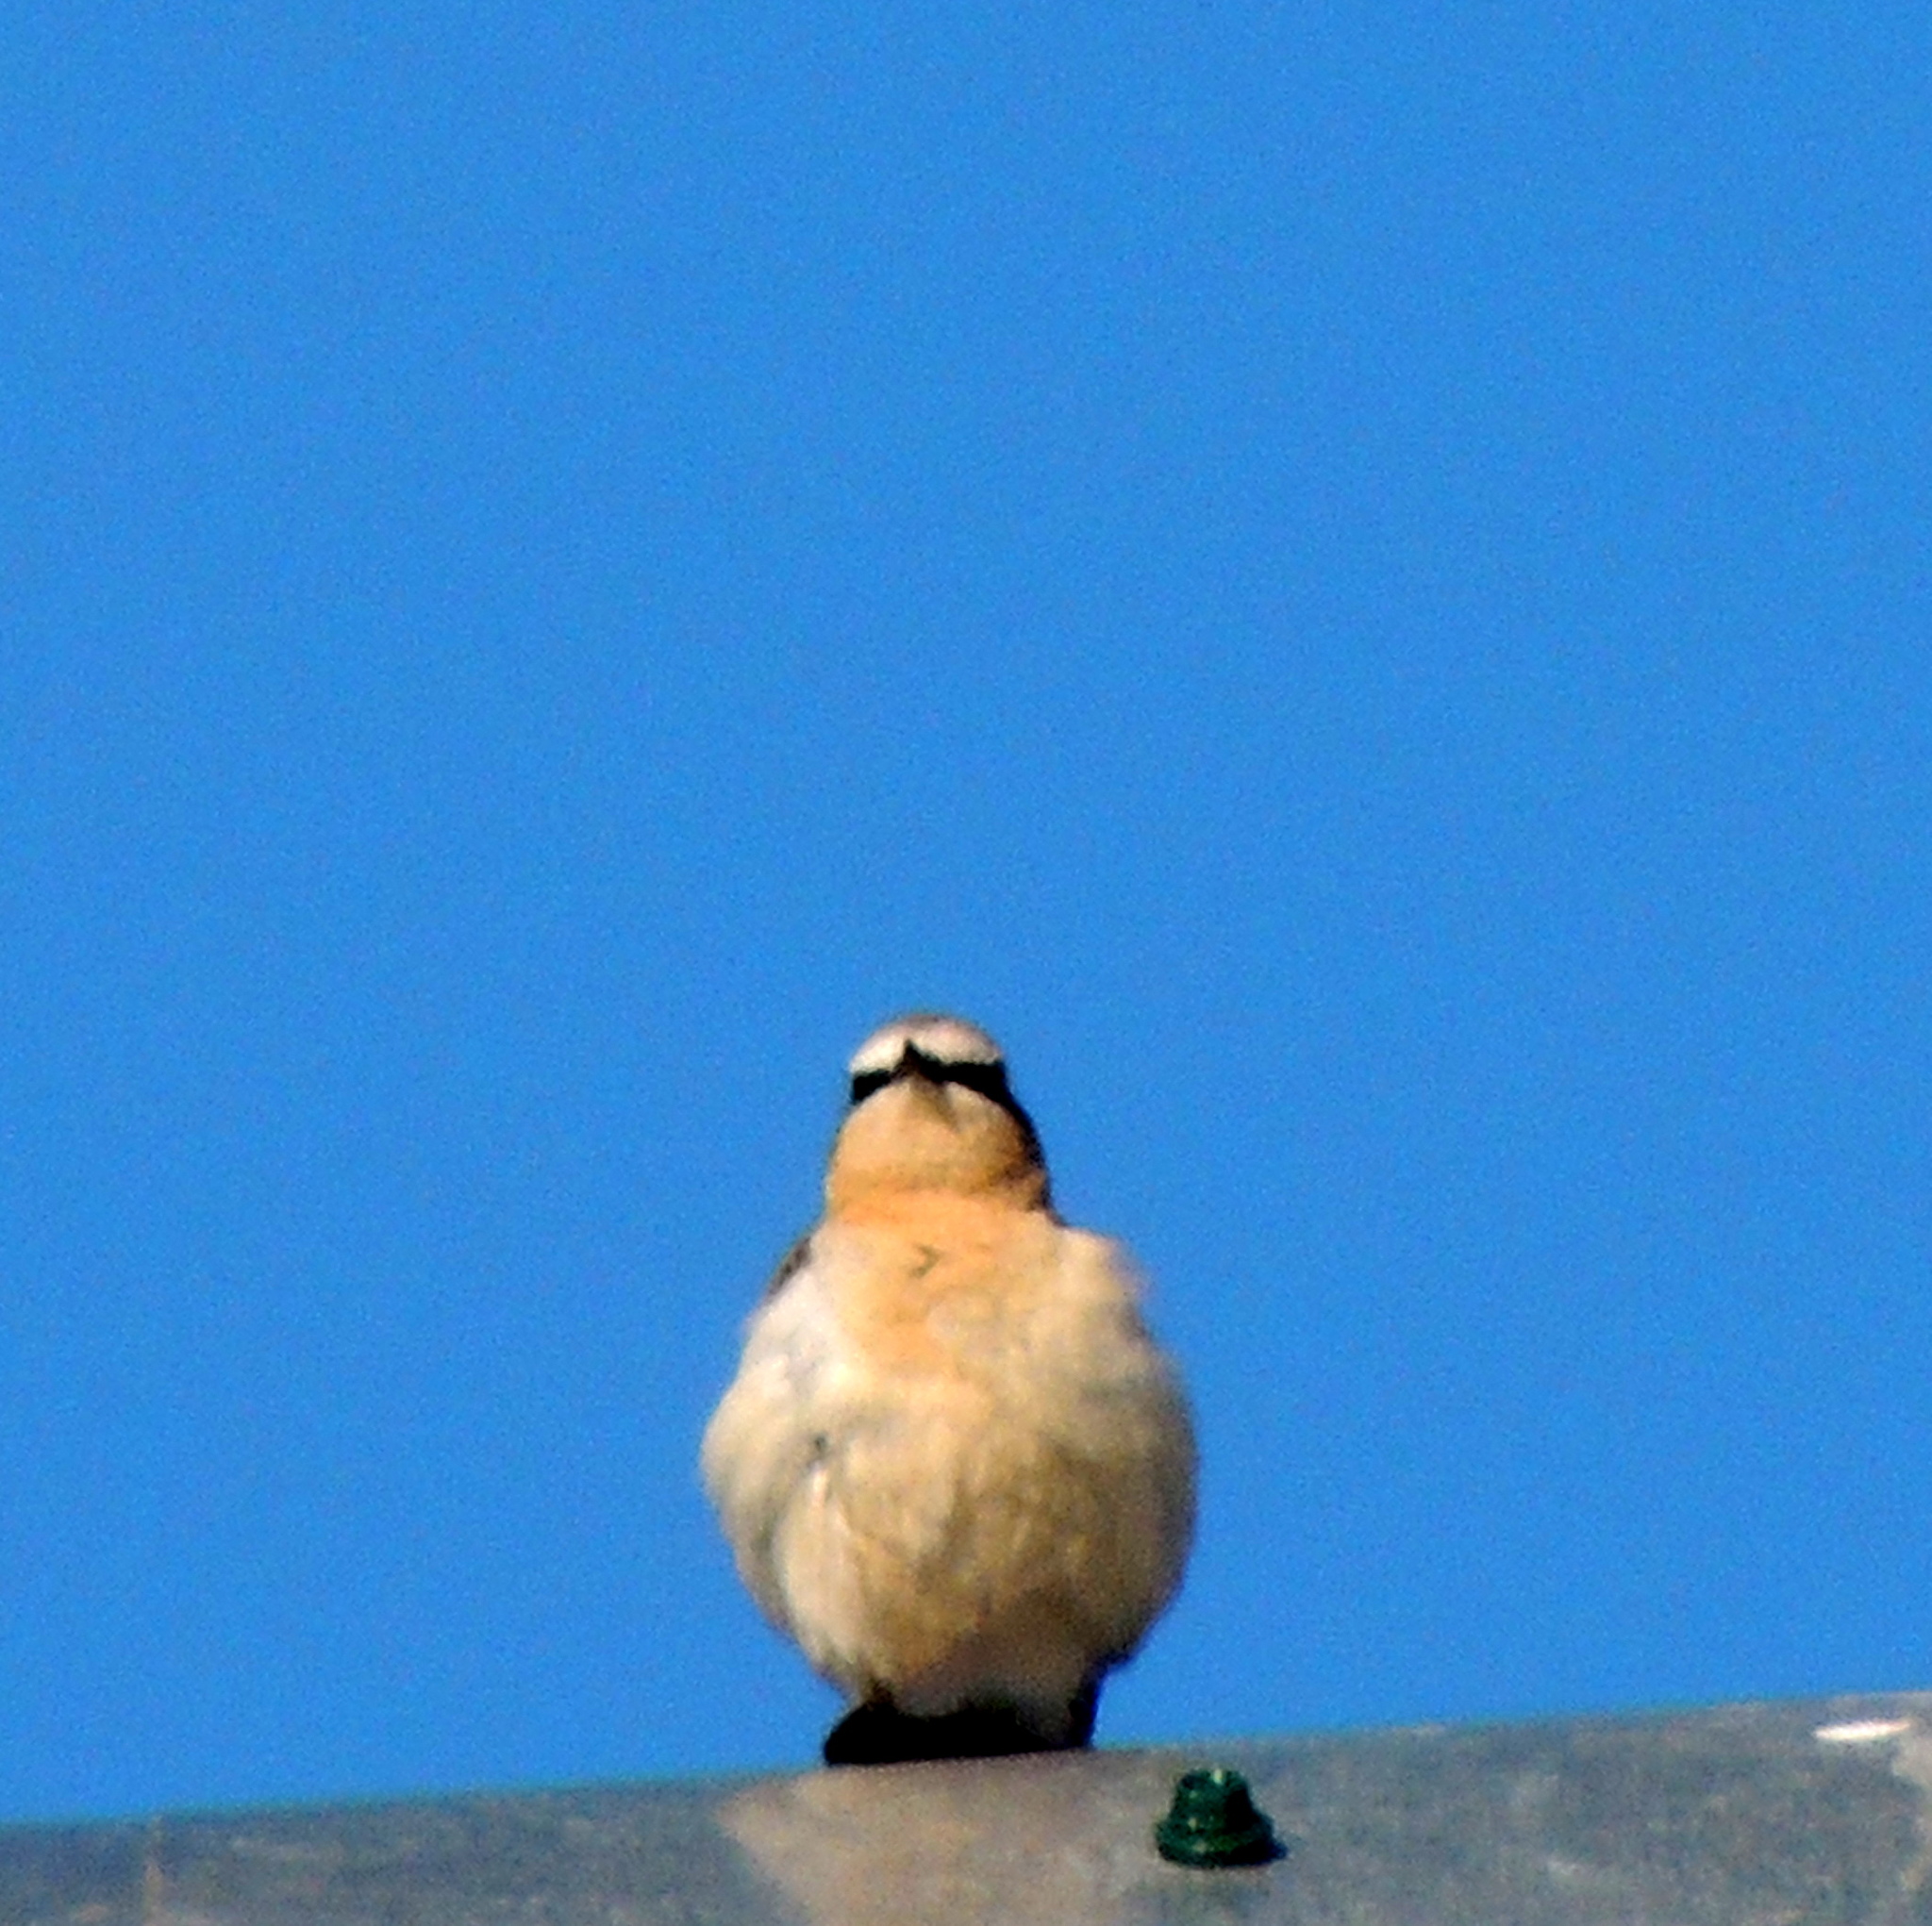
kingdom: Animalia
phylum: Chordata
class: Aves
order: Passeriformes
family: Muscicapidae
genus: Oenanthe
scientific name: Oenanthe oenanthe
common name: Northern wheatear
